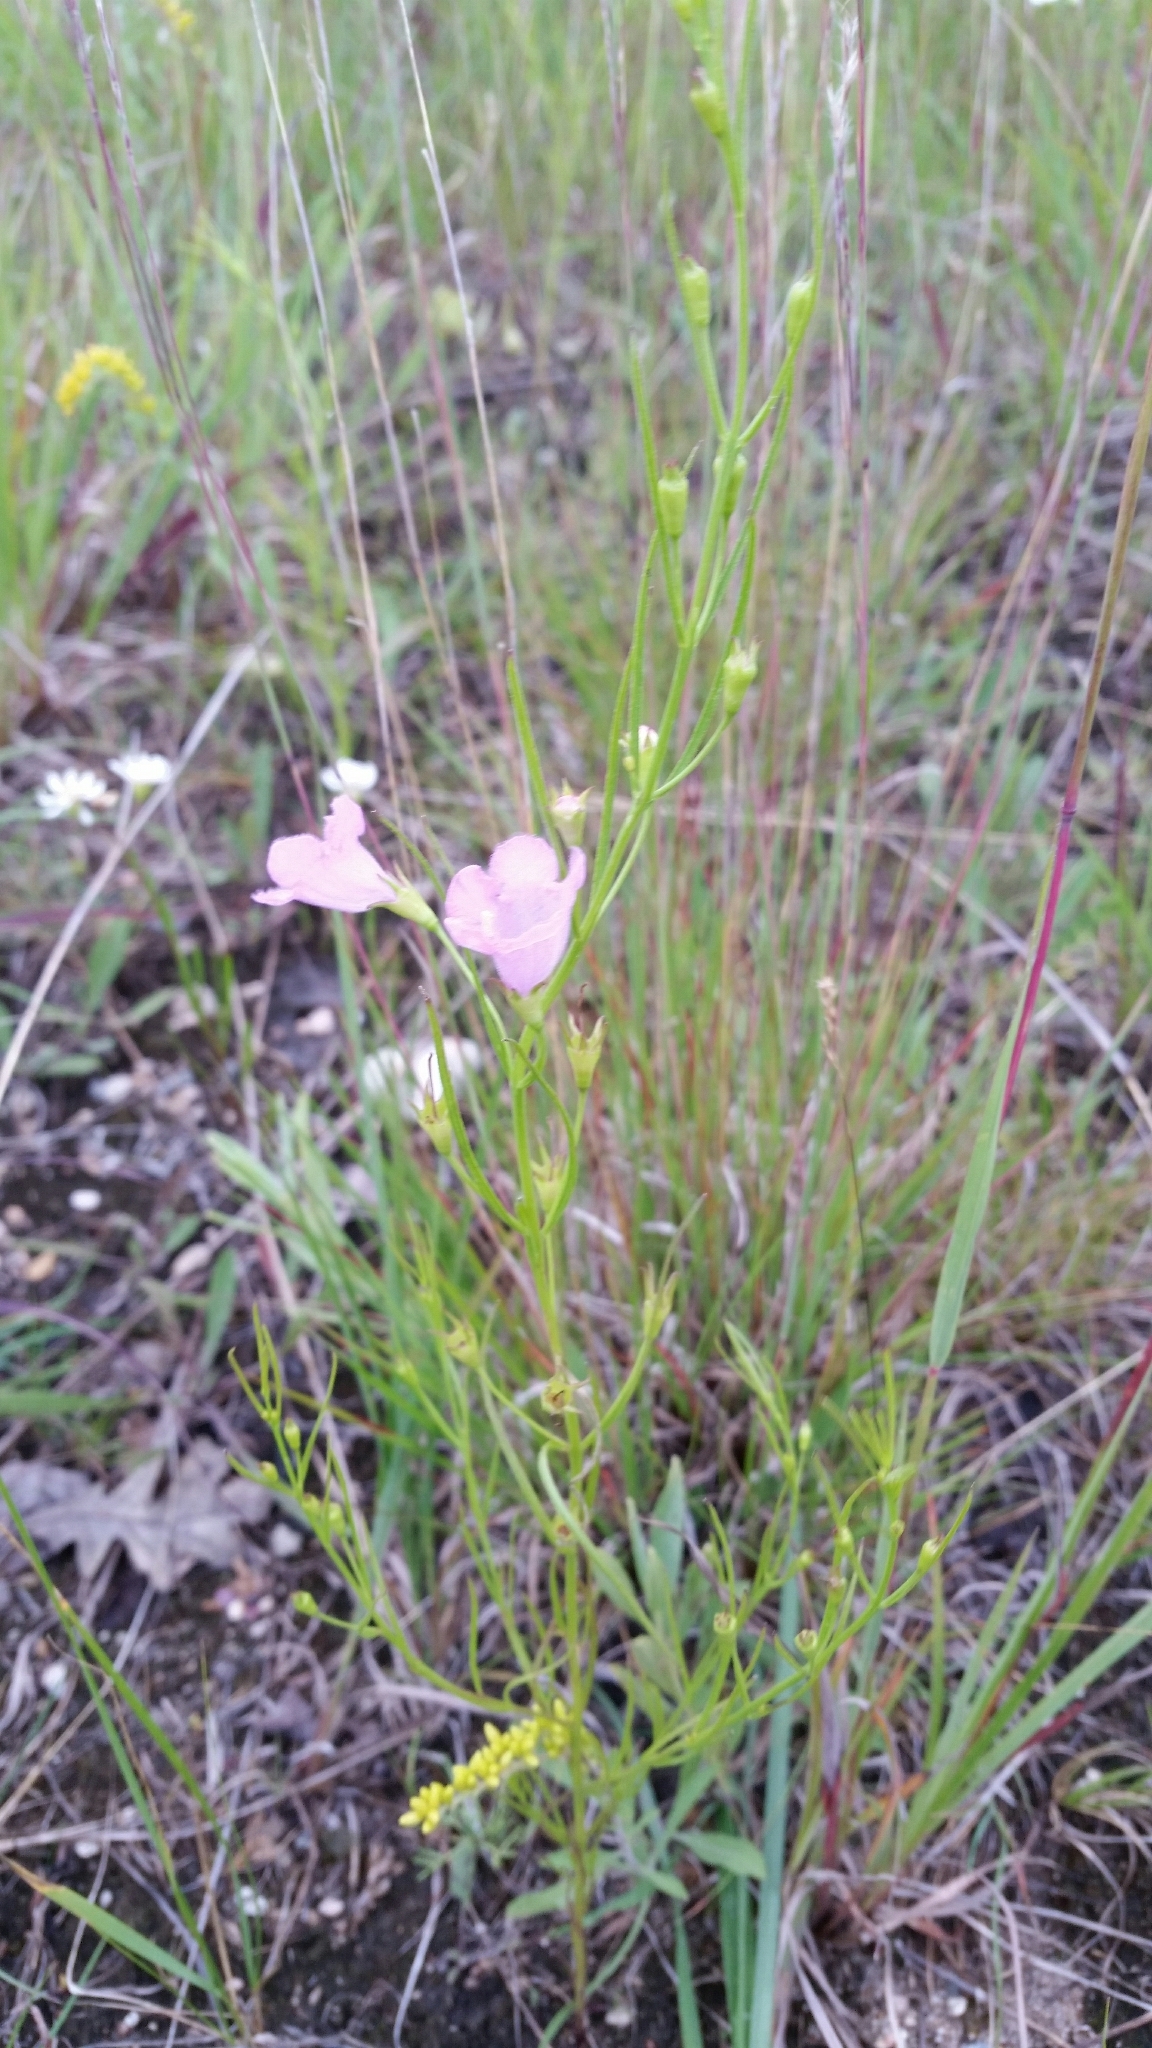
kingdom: Plantae
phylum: Tracheophyta
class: Magnoliopsida
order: Lamiales
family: Orobanchaceae
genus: Agalinis
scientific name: Agalinis aspera
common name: Rough agalinis
